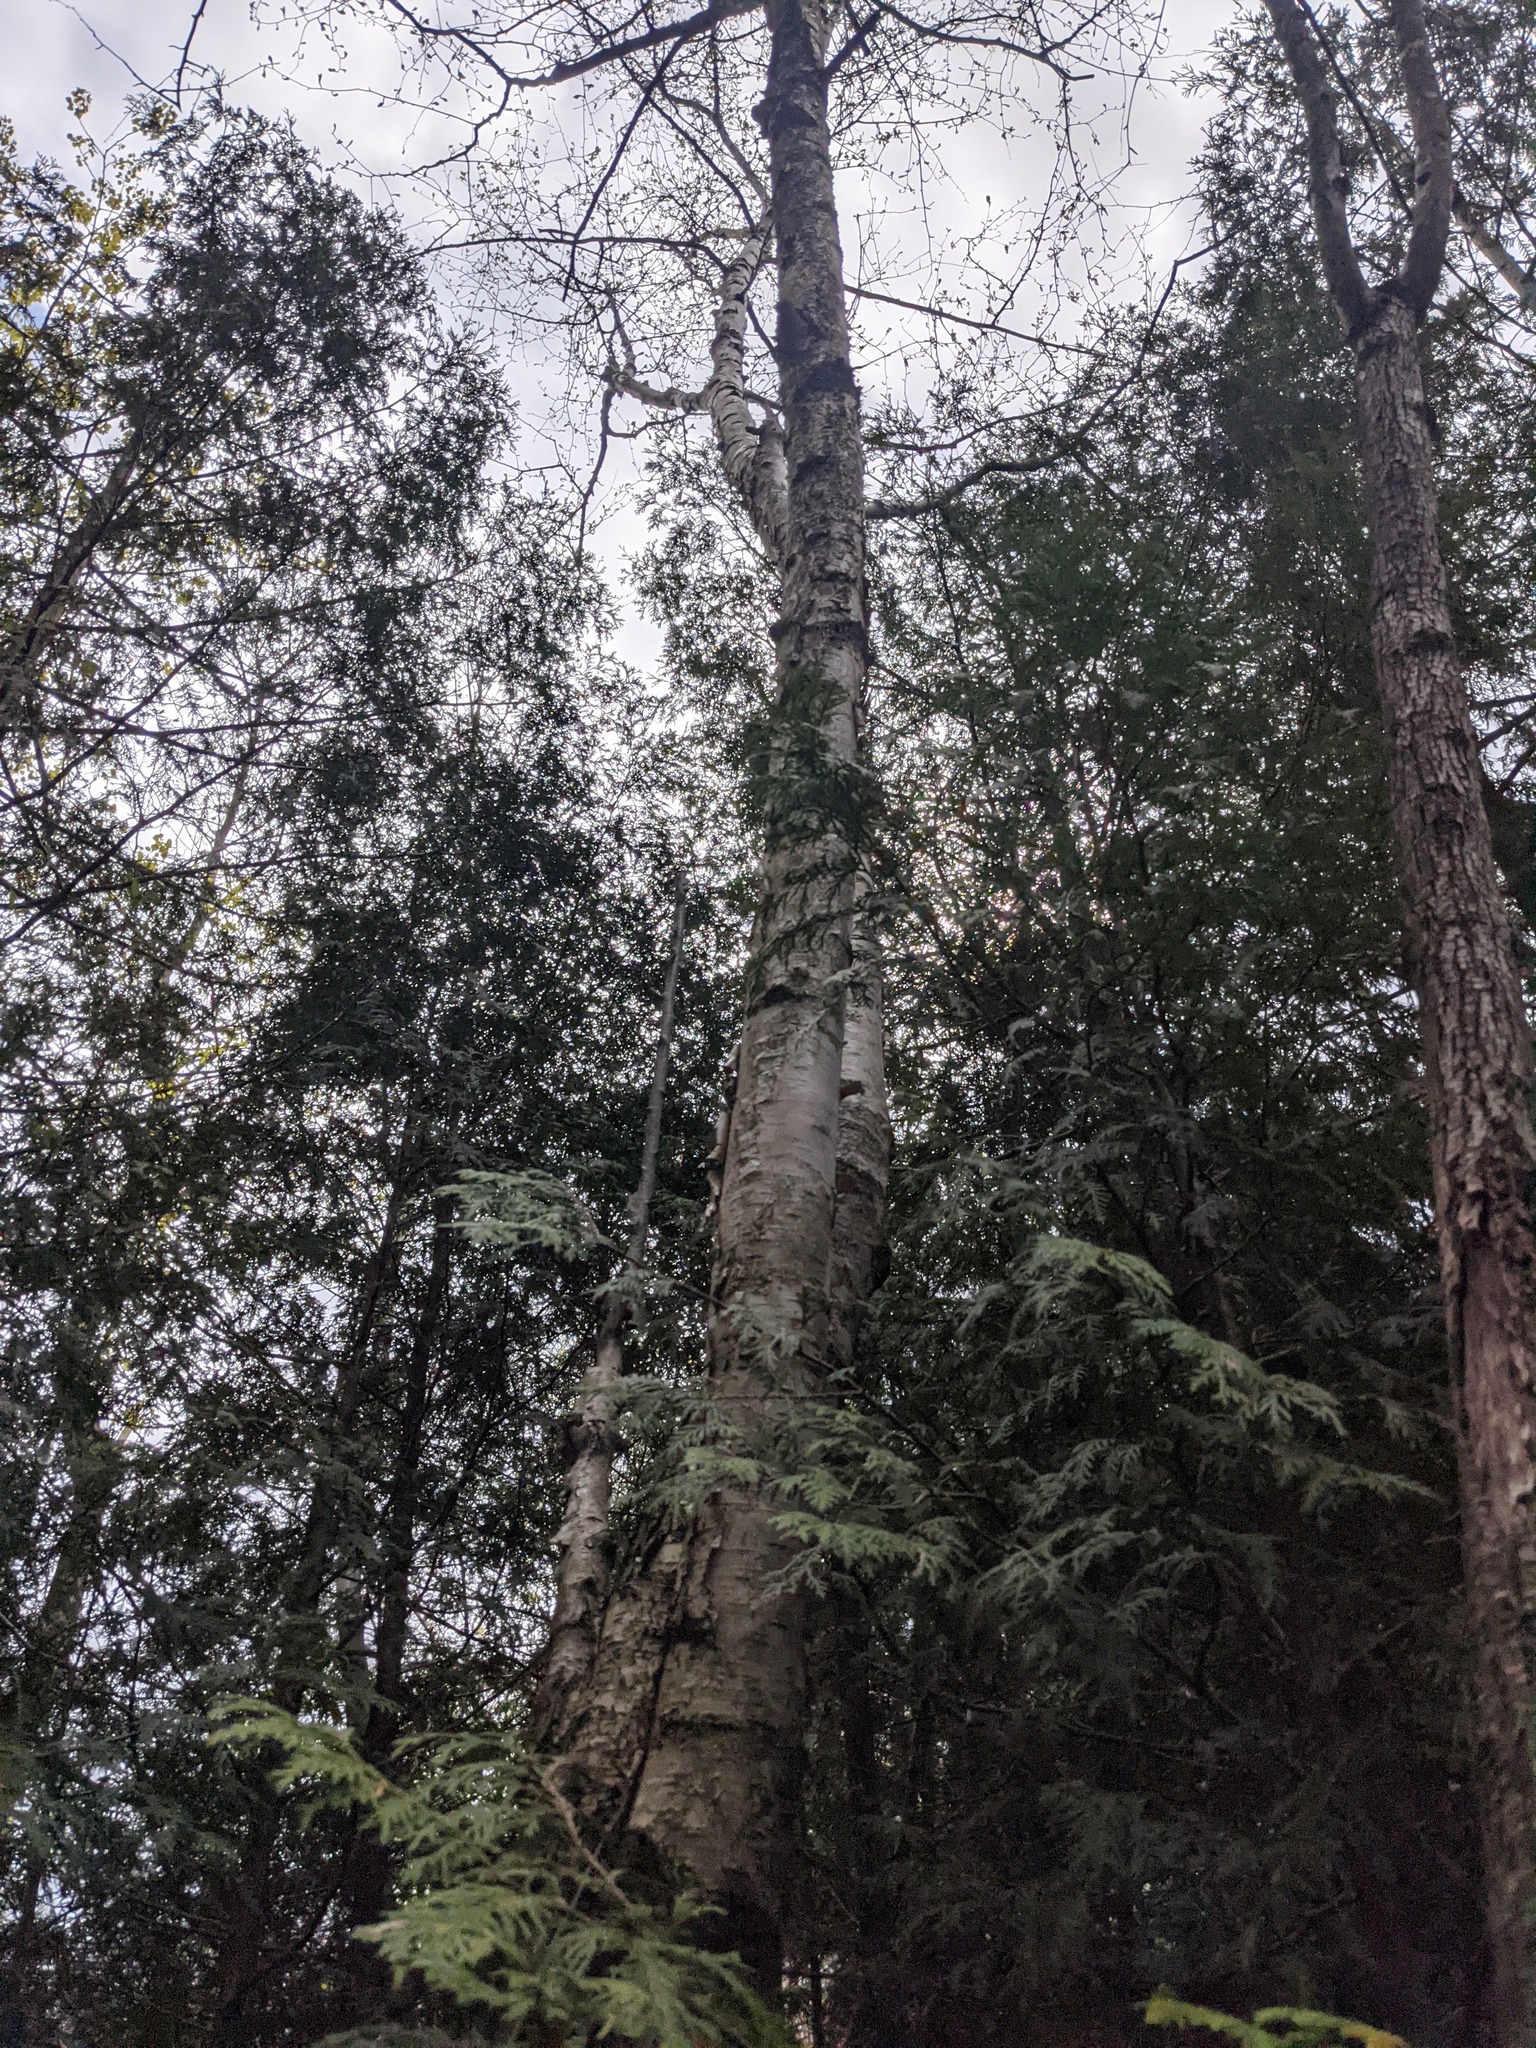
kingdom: Plantae
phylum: Tracheophyta
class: Magnoliopsida
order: Fagales
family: Betulaceae
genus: Betula
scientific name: Betula papyrifera
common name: Paper birch
